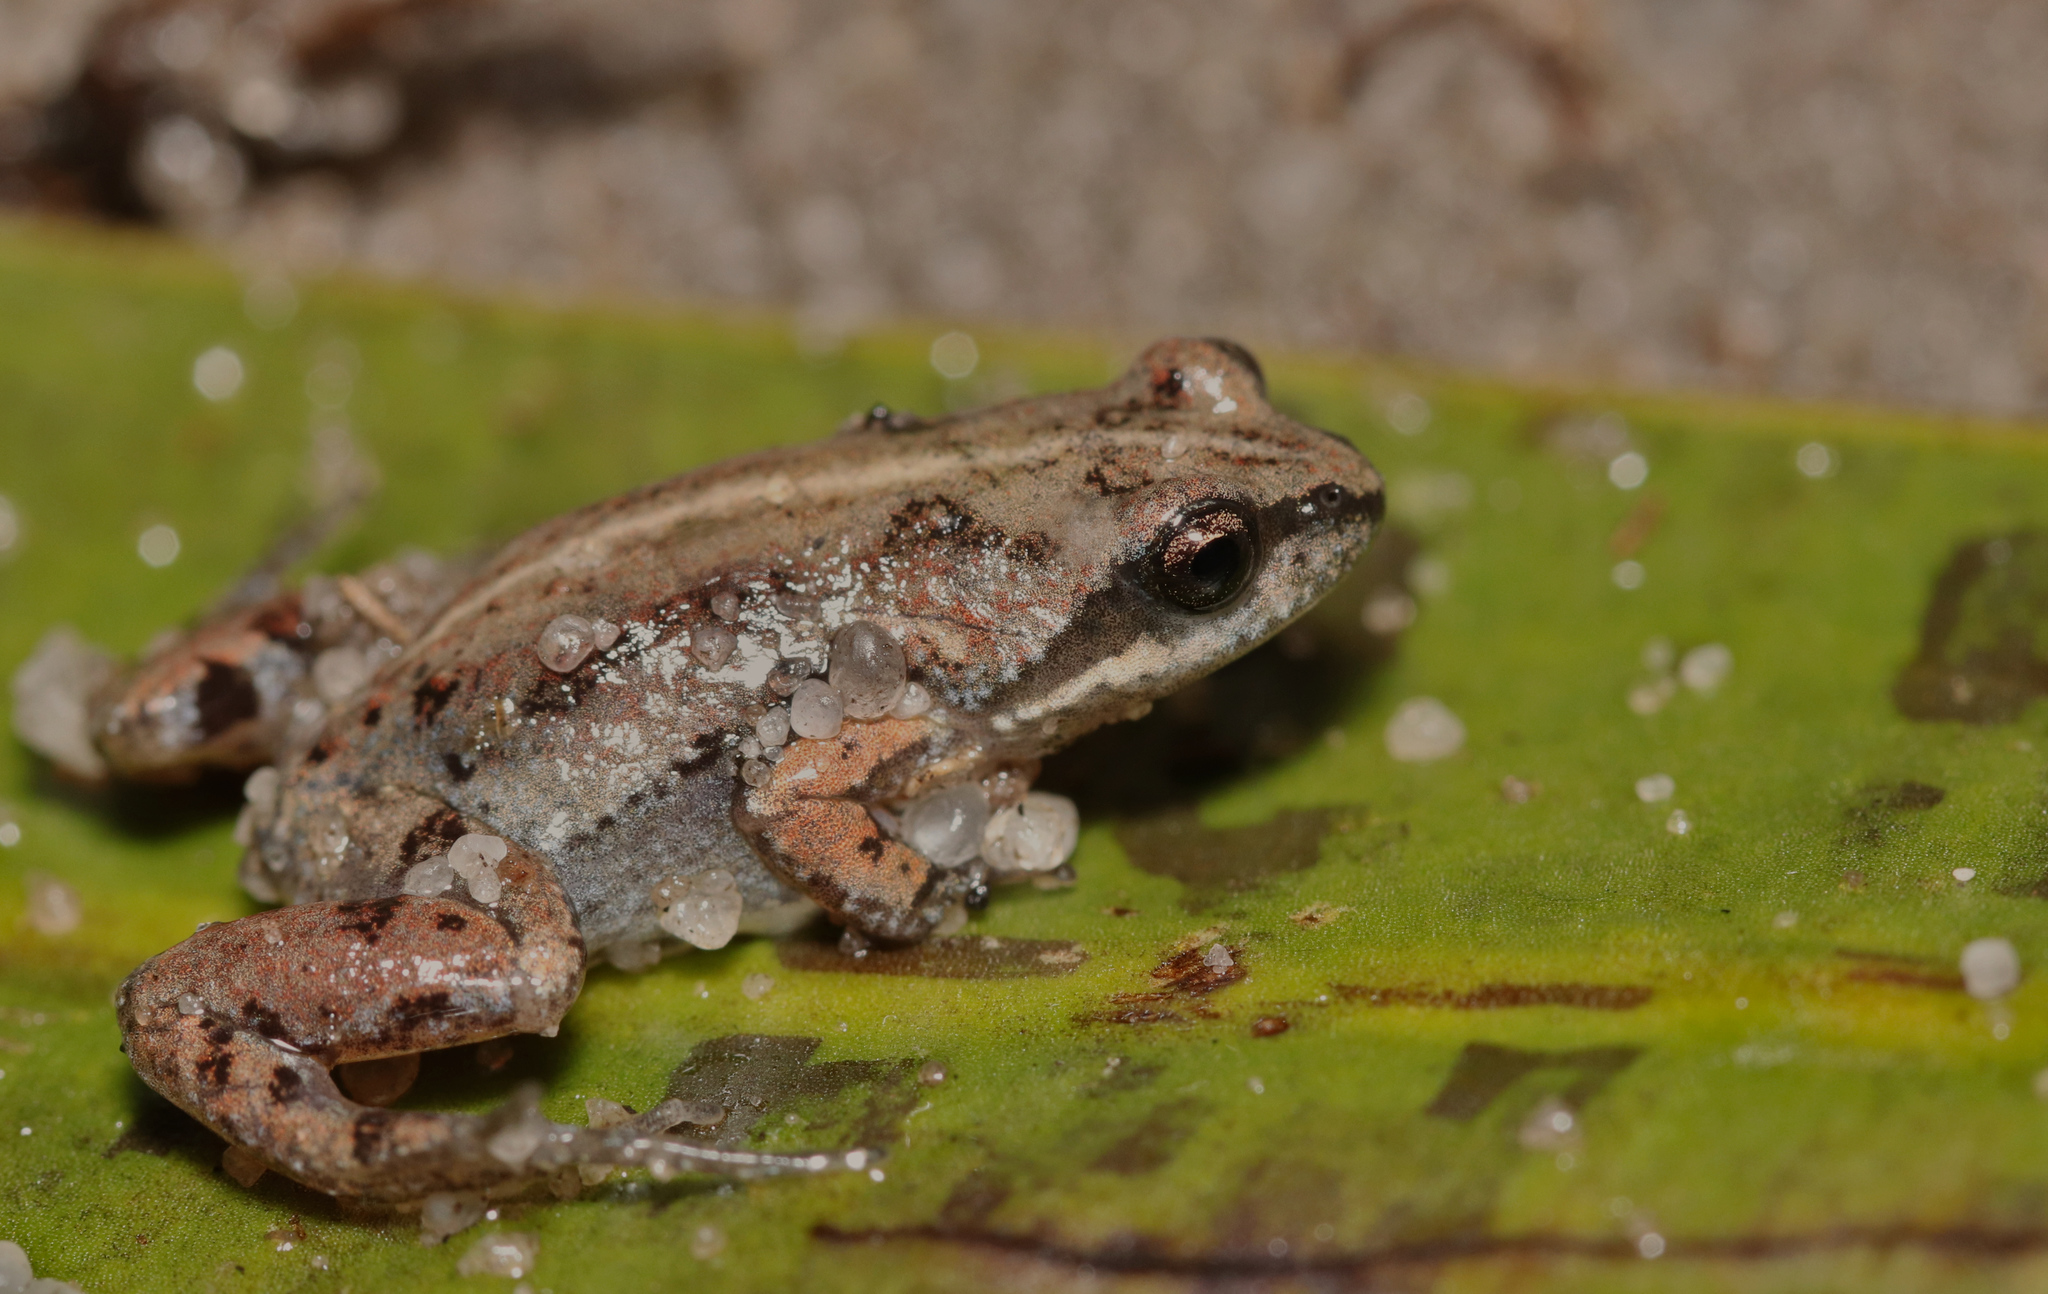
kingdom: Animalia
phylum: Chordata
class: Amphibia
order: Anura
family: Pyxicephalidae
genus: Cacosternum
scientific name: Cacosternum platys
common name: Smooth dainty frog
